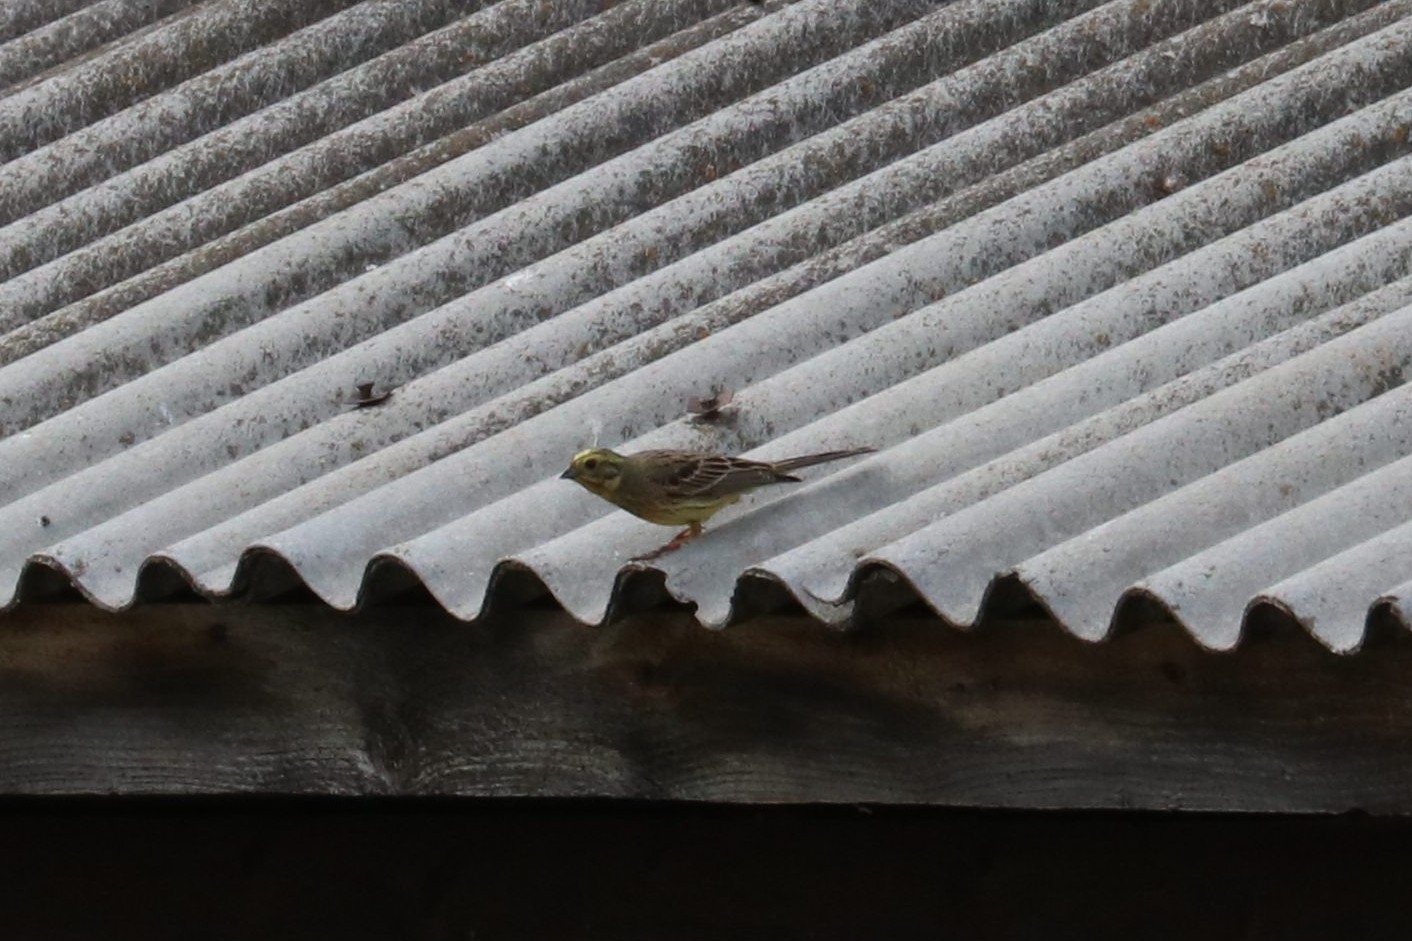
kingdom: Animalia
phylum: Chordata
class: Aves
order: Passeriformes
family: Emberizidae
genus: Emberiza
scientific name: Emberiza citrinella
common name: Yellowhammer
